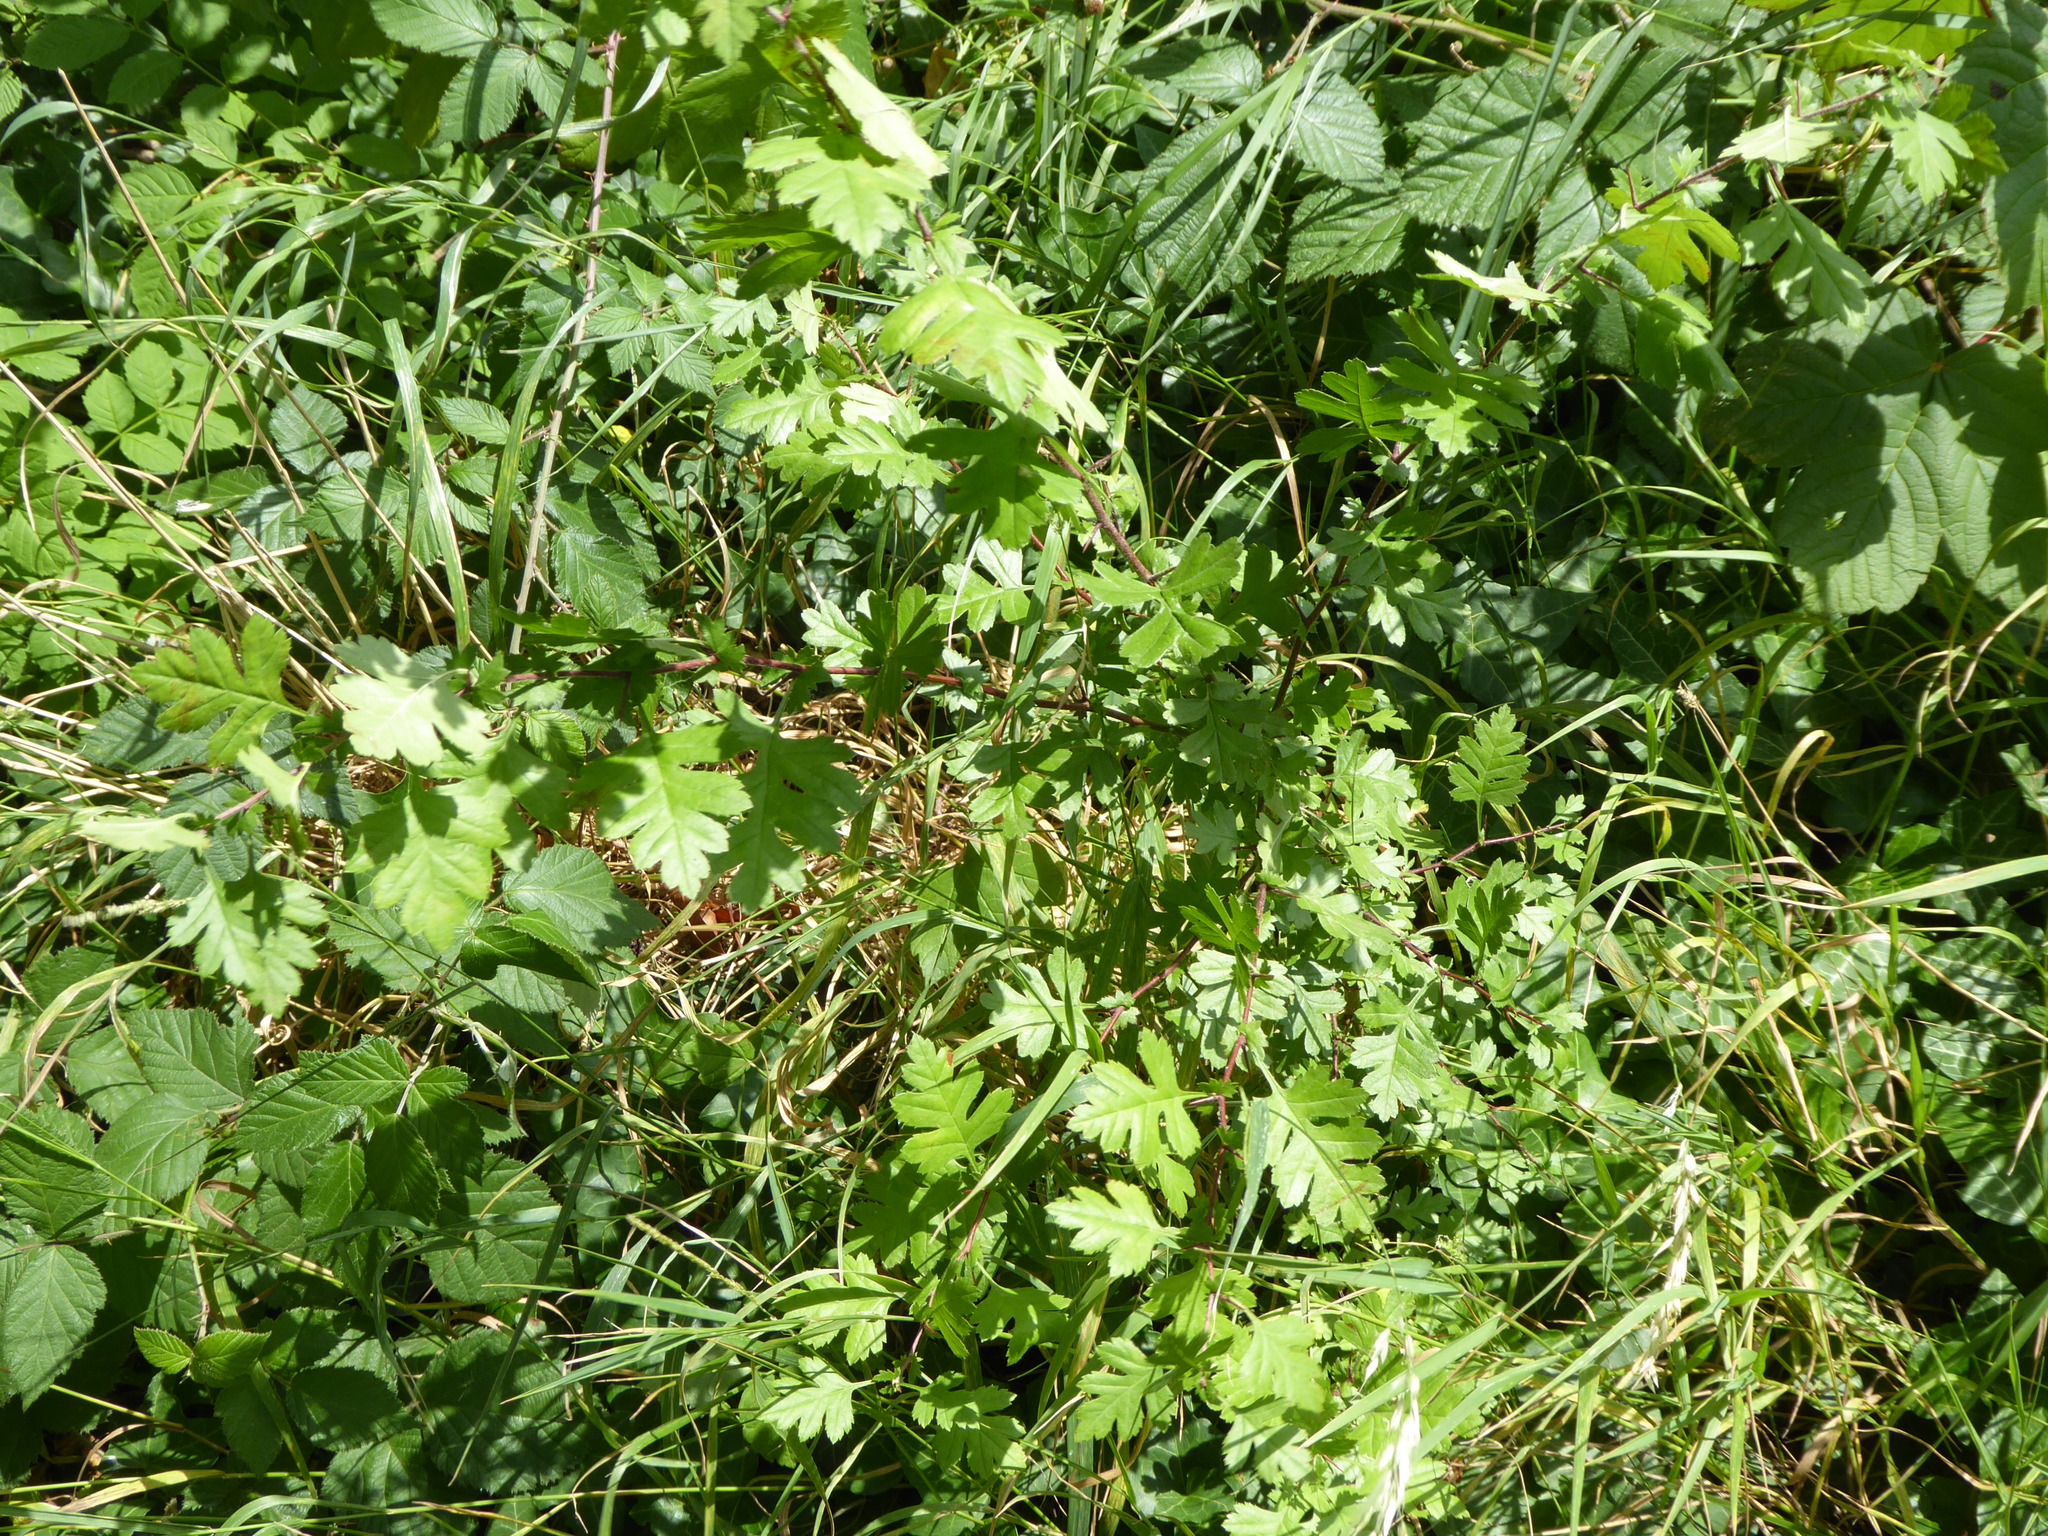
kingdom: Plantae
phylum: Tracheophyta
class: Magnoliopsida
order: Rosales
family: Rosaceae
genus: Crataegus
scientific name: Crataegus monogyna
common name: Hawthorn
